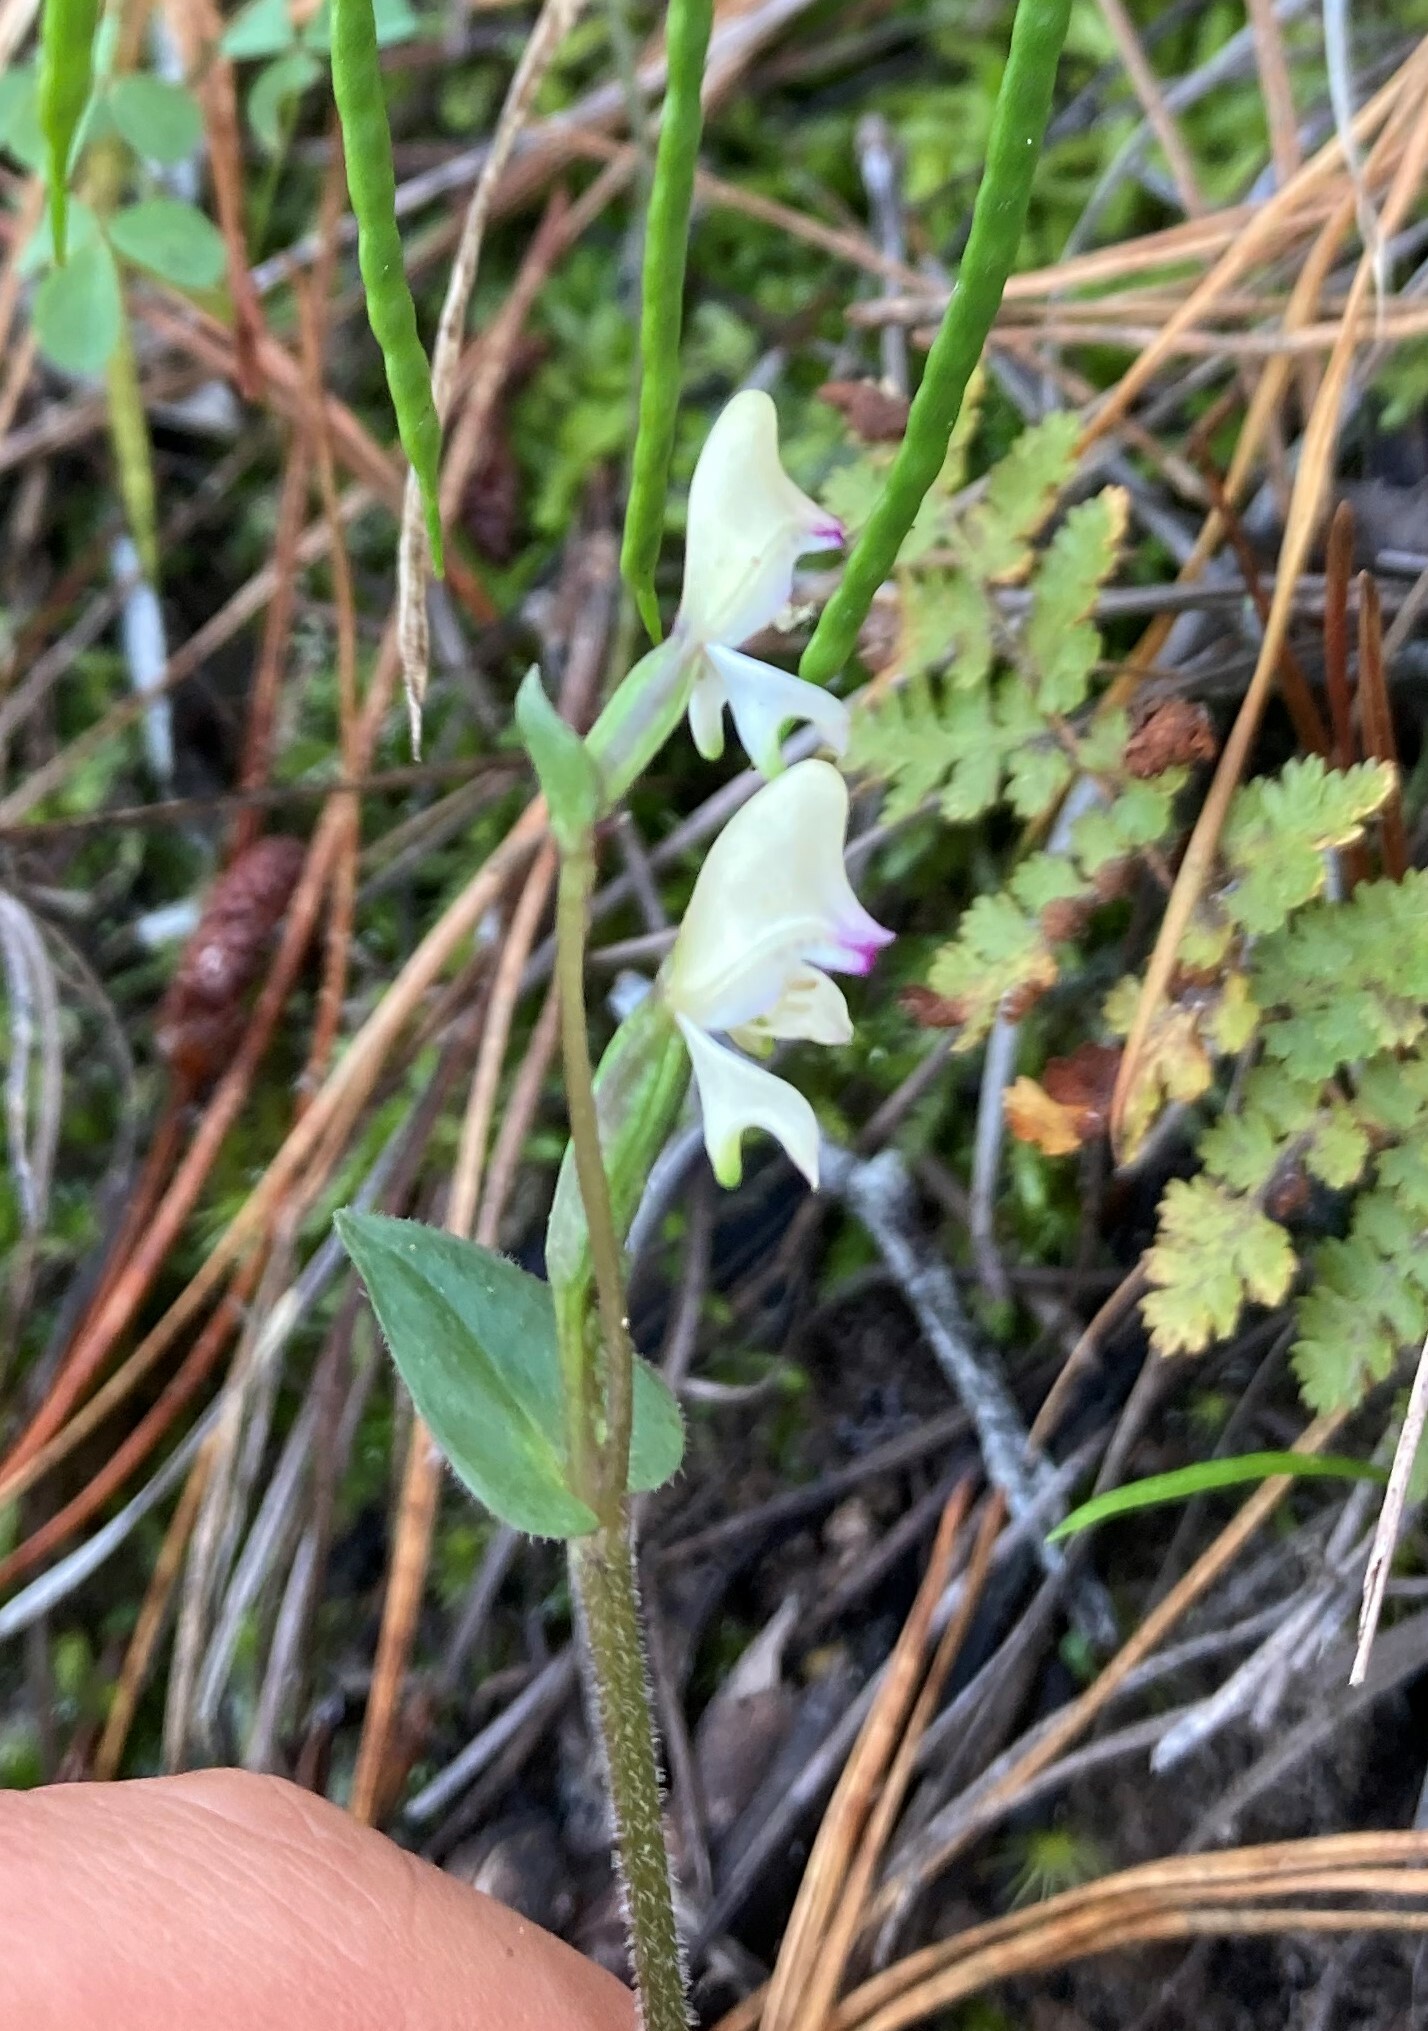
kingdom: Plantae
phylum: Tracheophyta
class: Liliopsida
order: Asparagales
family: Orchidaceae
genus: Disperis
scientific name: Disperis macowanii
